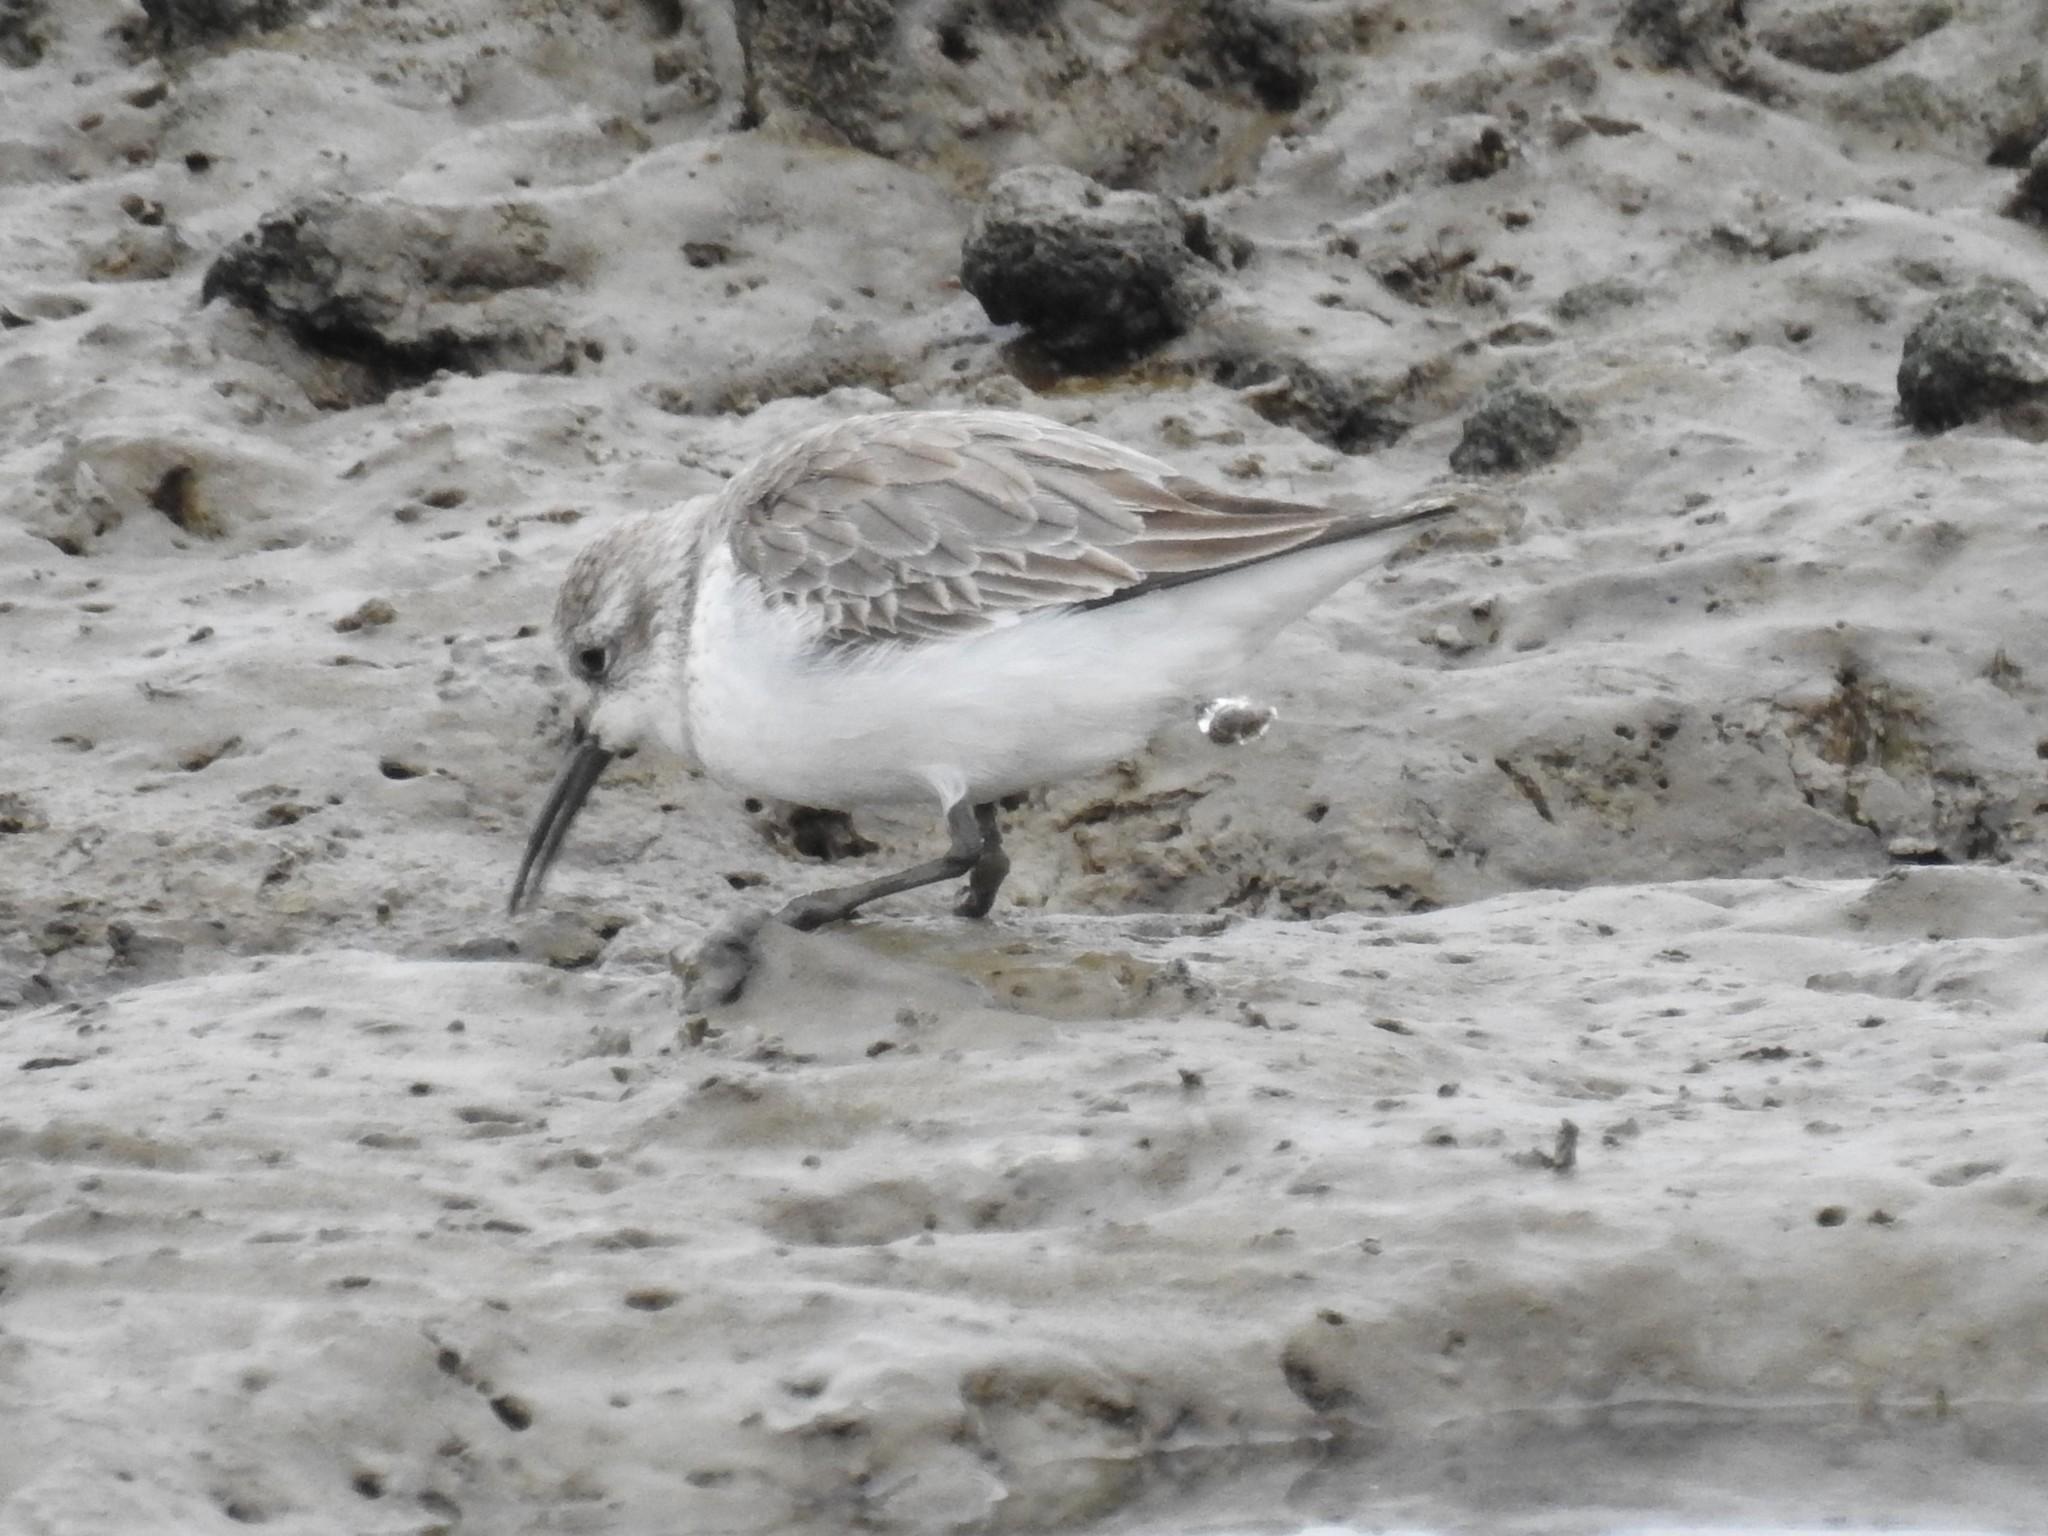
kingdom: Animalia
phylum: Chordata
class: Aves
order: Charadriiformes
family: Scolopacidae
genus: Calidris
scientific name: Calidris mauri
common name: Western sandpiper
